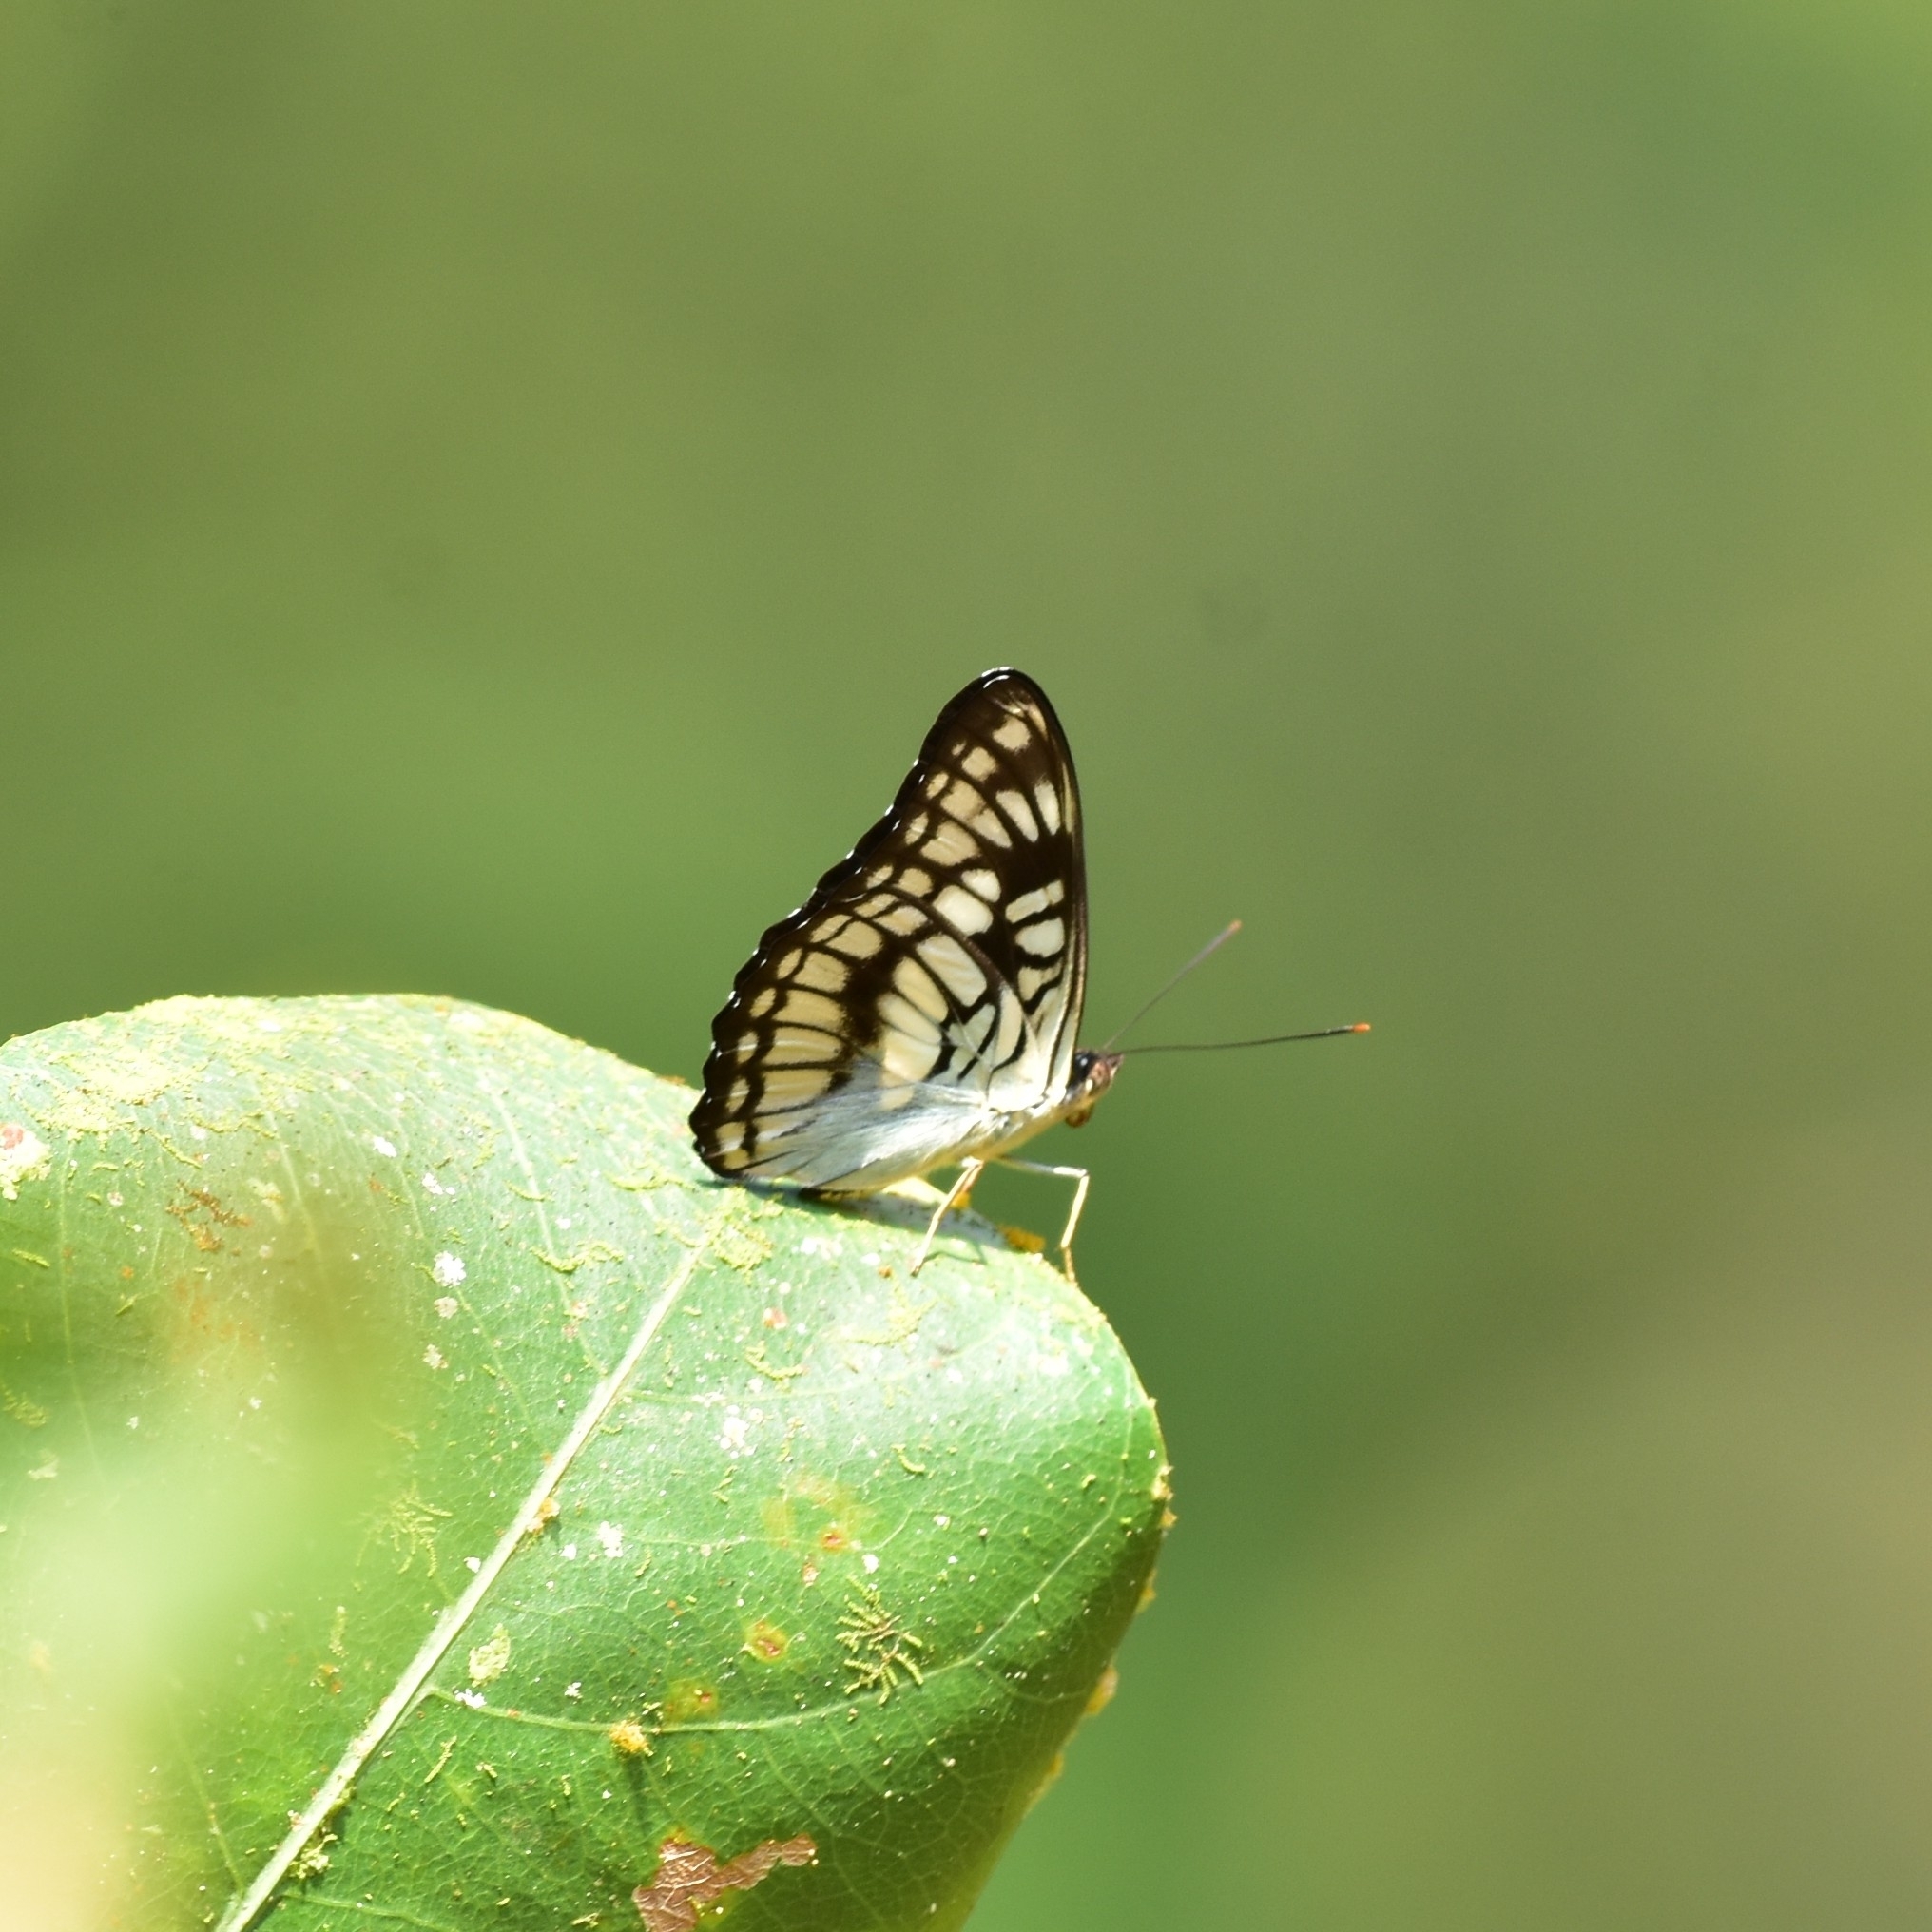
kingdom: Animalia
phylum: Arthropoda
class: Insecta
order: Lepidoptera
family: Nymphalidae
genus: Parathyma
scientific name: Parathyma ranga
